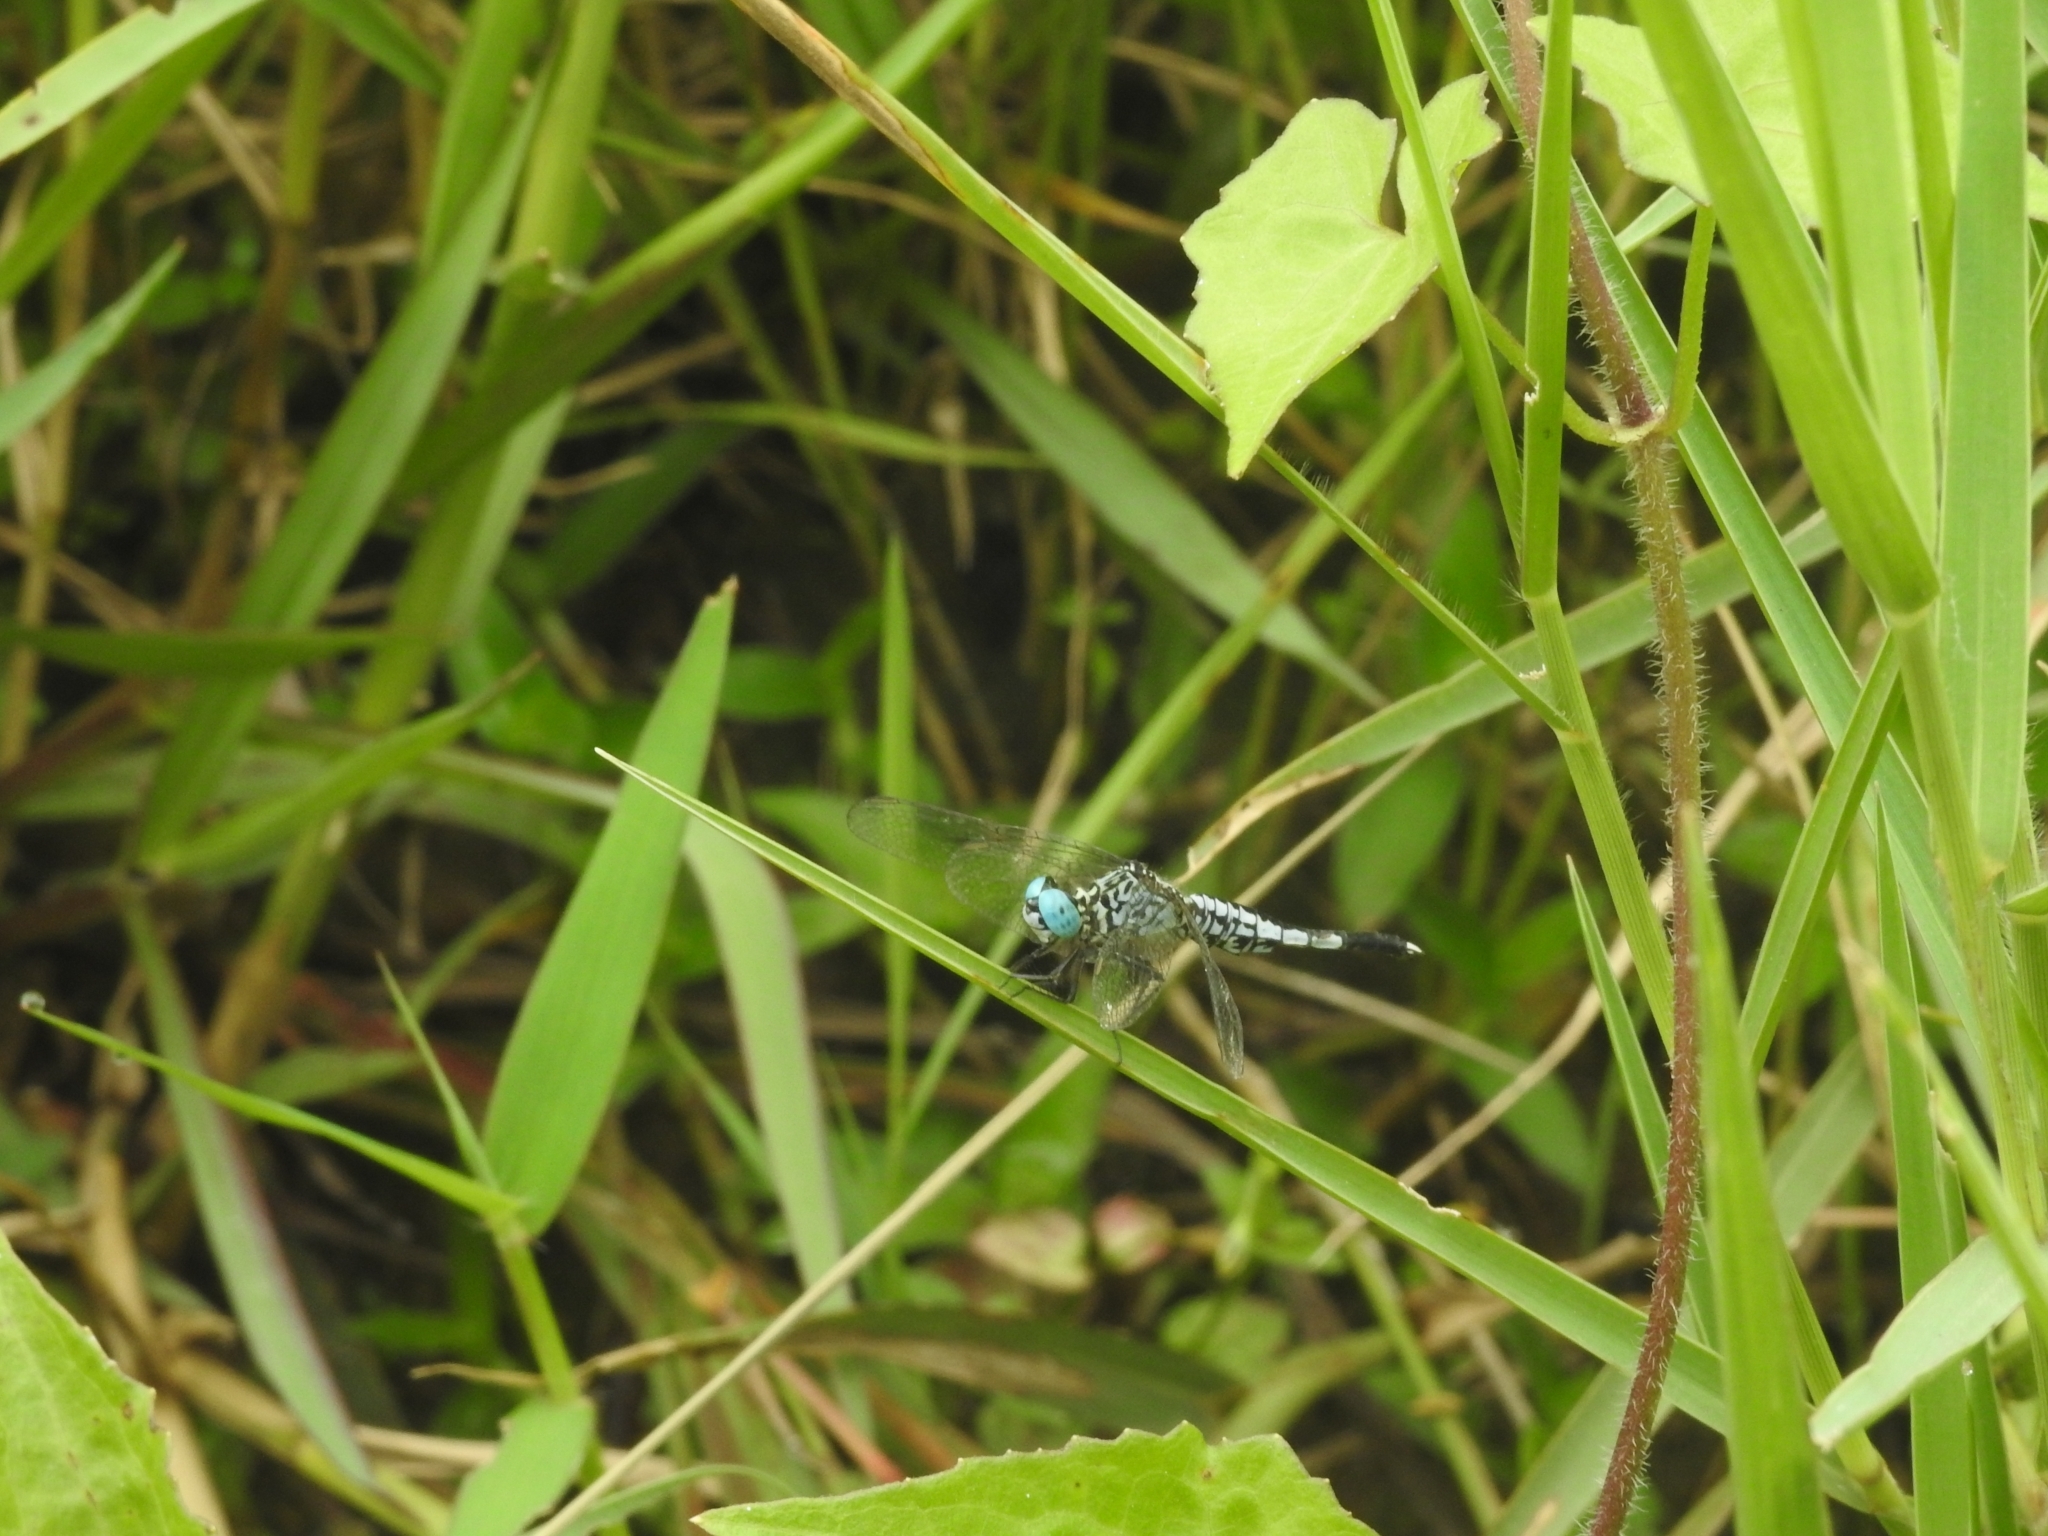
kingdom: Animalia
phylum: Arthropoda
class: Insecta
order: Odonata
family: Libellulidae
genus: Acisoma
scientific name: Acisoma panorpoides
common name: Asian pintail
